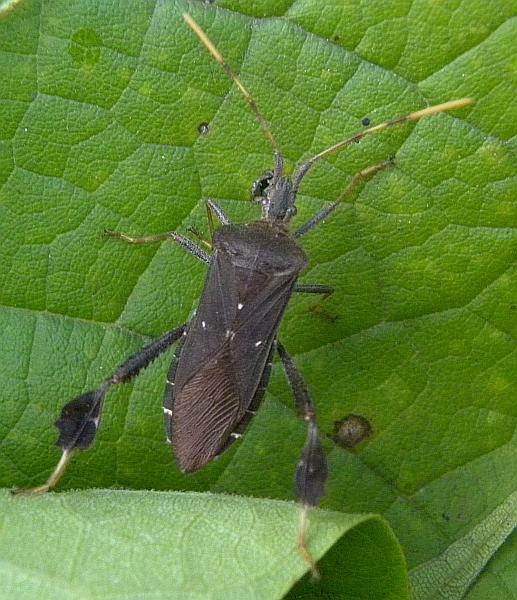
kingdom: Animalia
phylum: Arthropoda
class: Insecta
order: Hemiptera
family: Coreidae
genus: Leptoglossus
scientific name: Leptoglossus oppositus
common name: Northern leaf-footed bug
